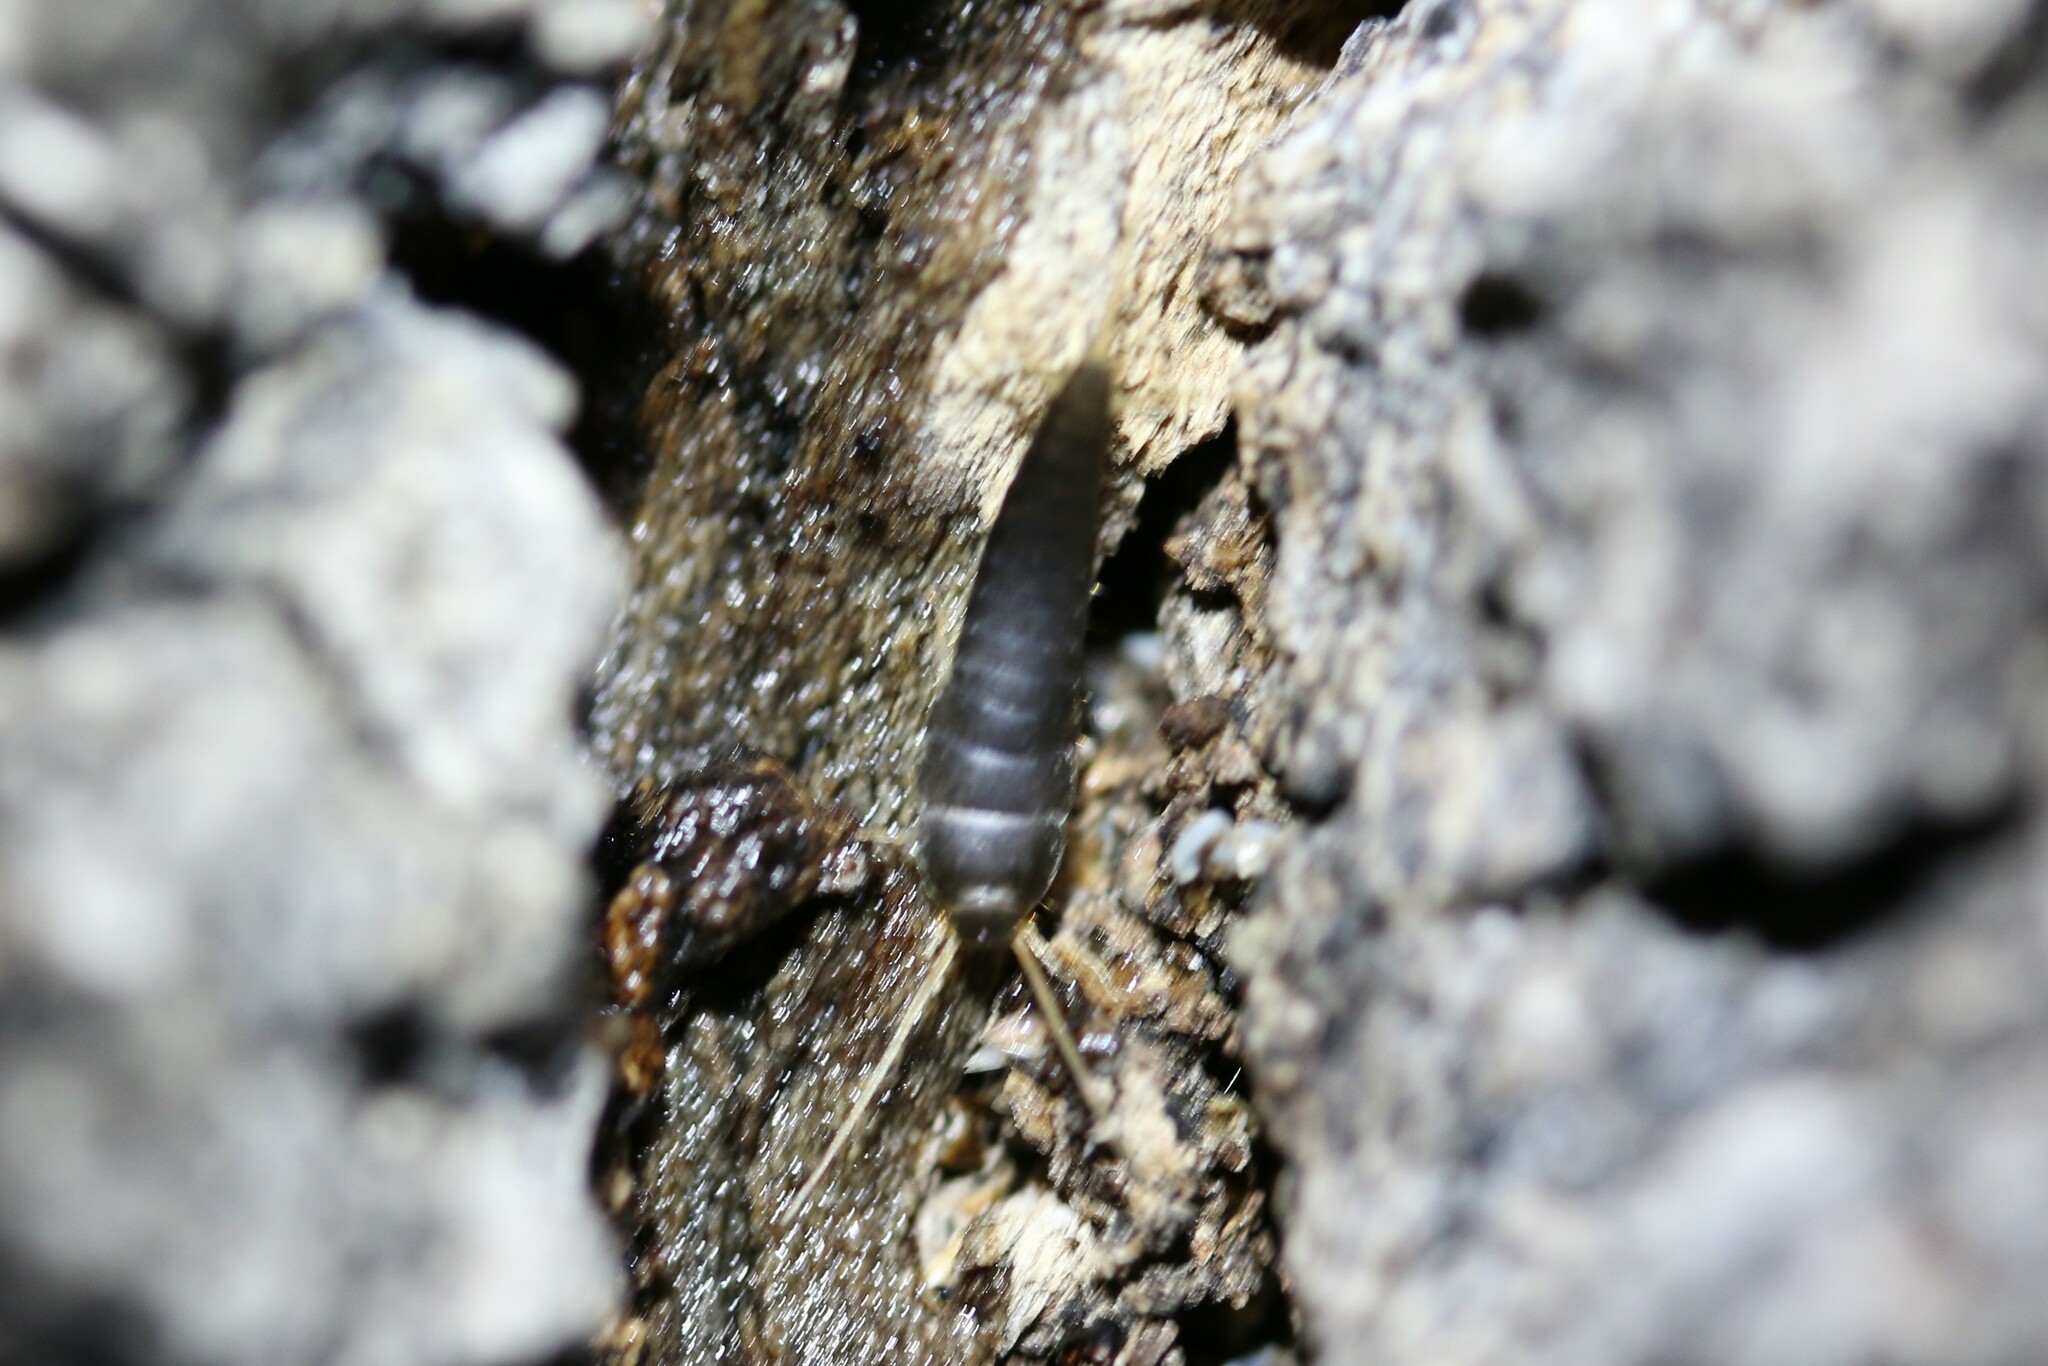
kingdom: Animalia
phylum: Arthropoda
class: Insecta
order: Zygentoma
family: Lepismatidae
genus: Lepisma
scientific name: Lepisma saccharinum
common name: Silverfish
